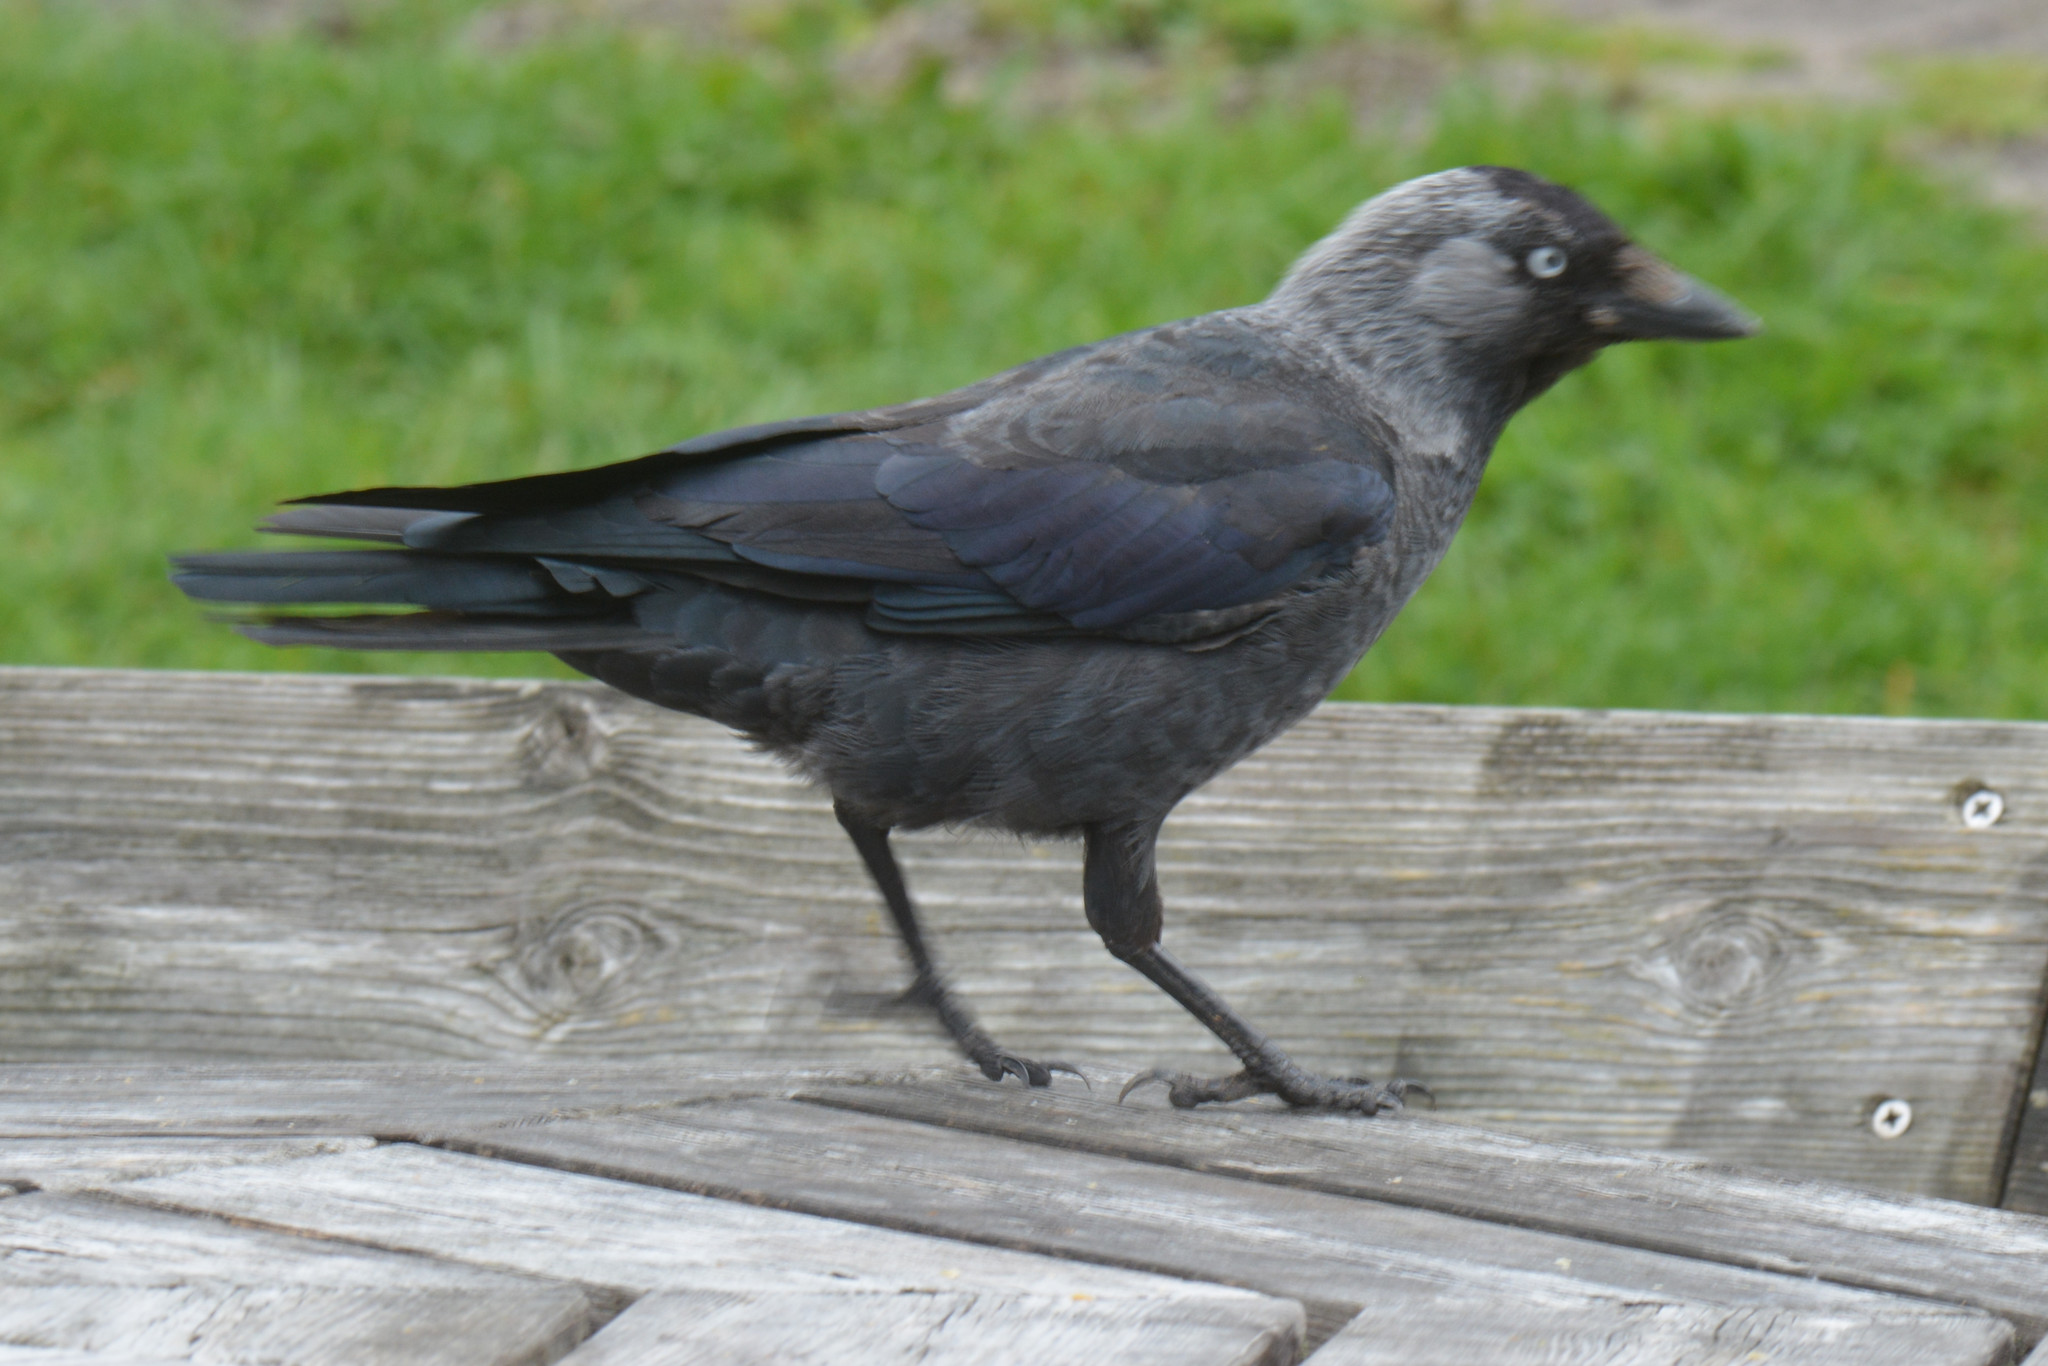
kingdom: Animalia
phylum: Chordata
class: Aves
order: Passeriformes
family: Corvidae
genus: Coloeus
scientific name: Coloeus monedula
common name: Western jackdaw
